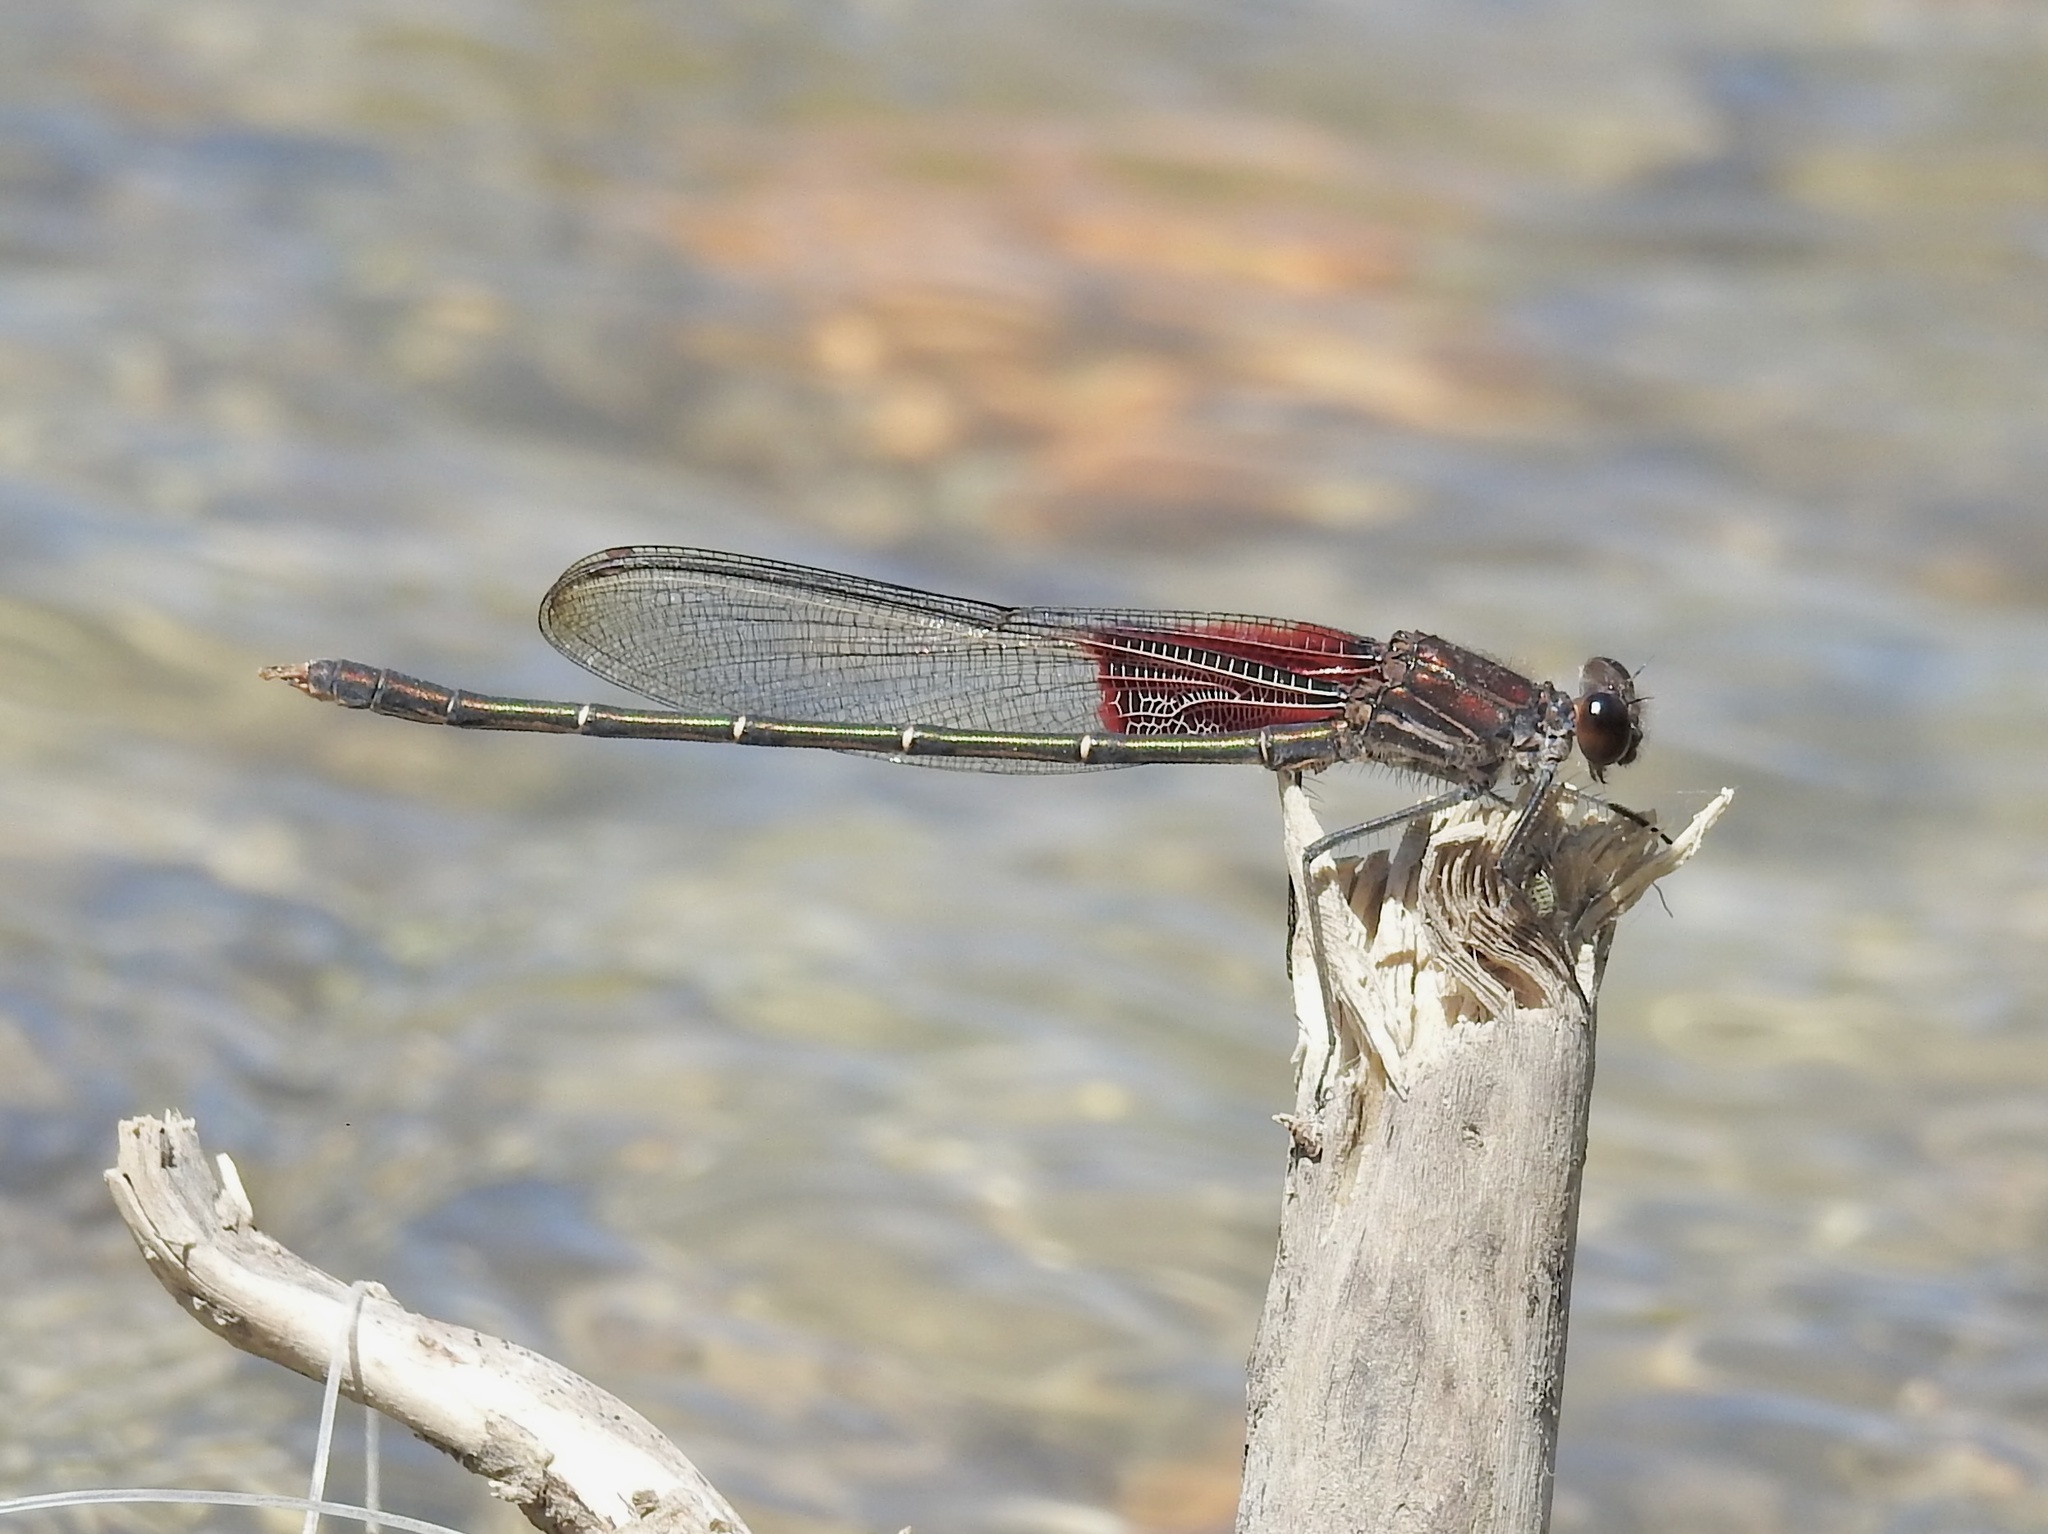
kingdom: Animalia
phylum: Arthropoda
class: Insecta
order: Odonata
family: Calopterygidae
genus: Hetaerina
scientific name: Hetaerina americana
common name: American rubyspot
